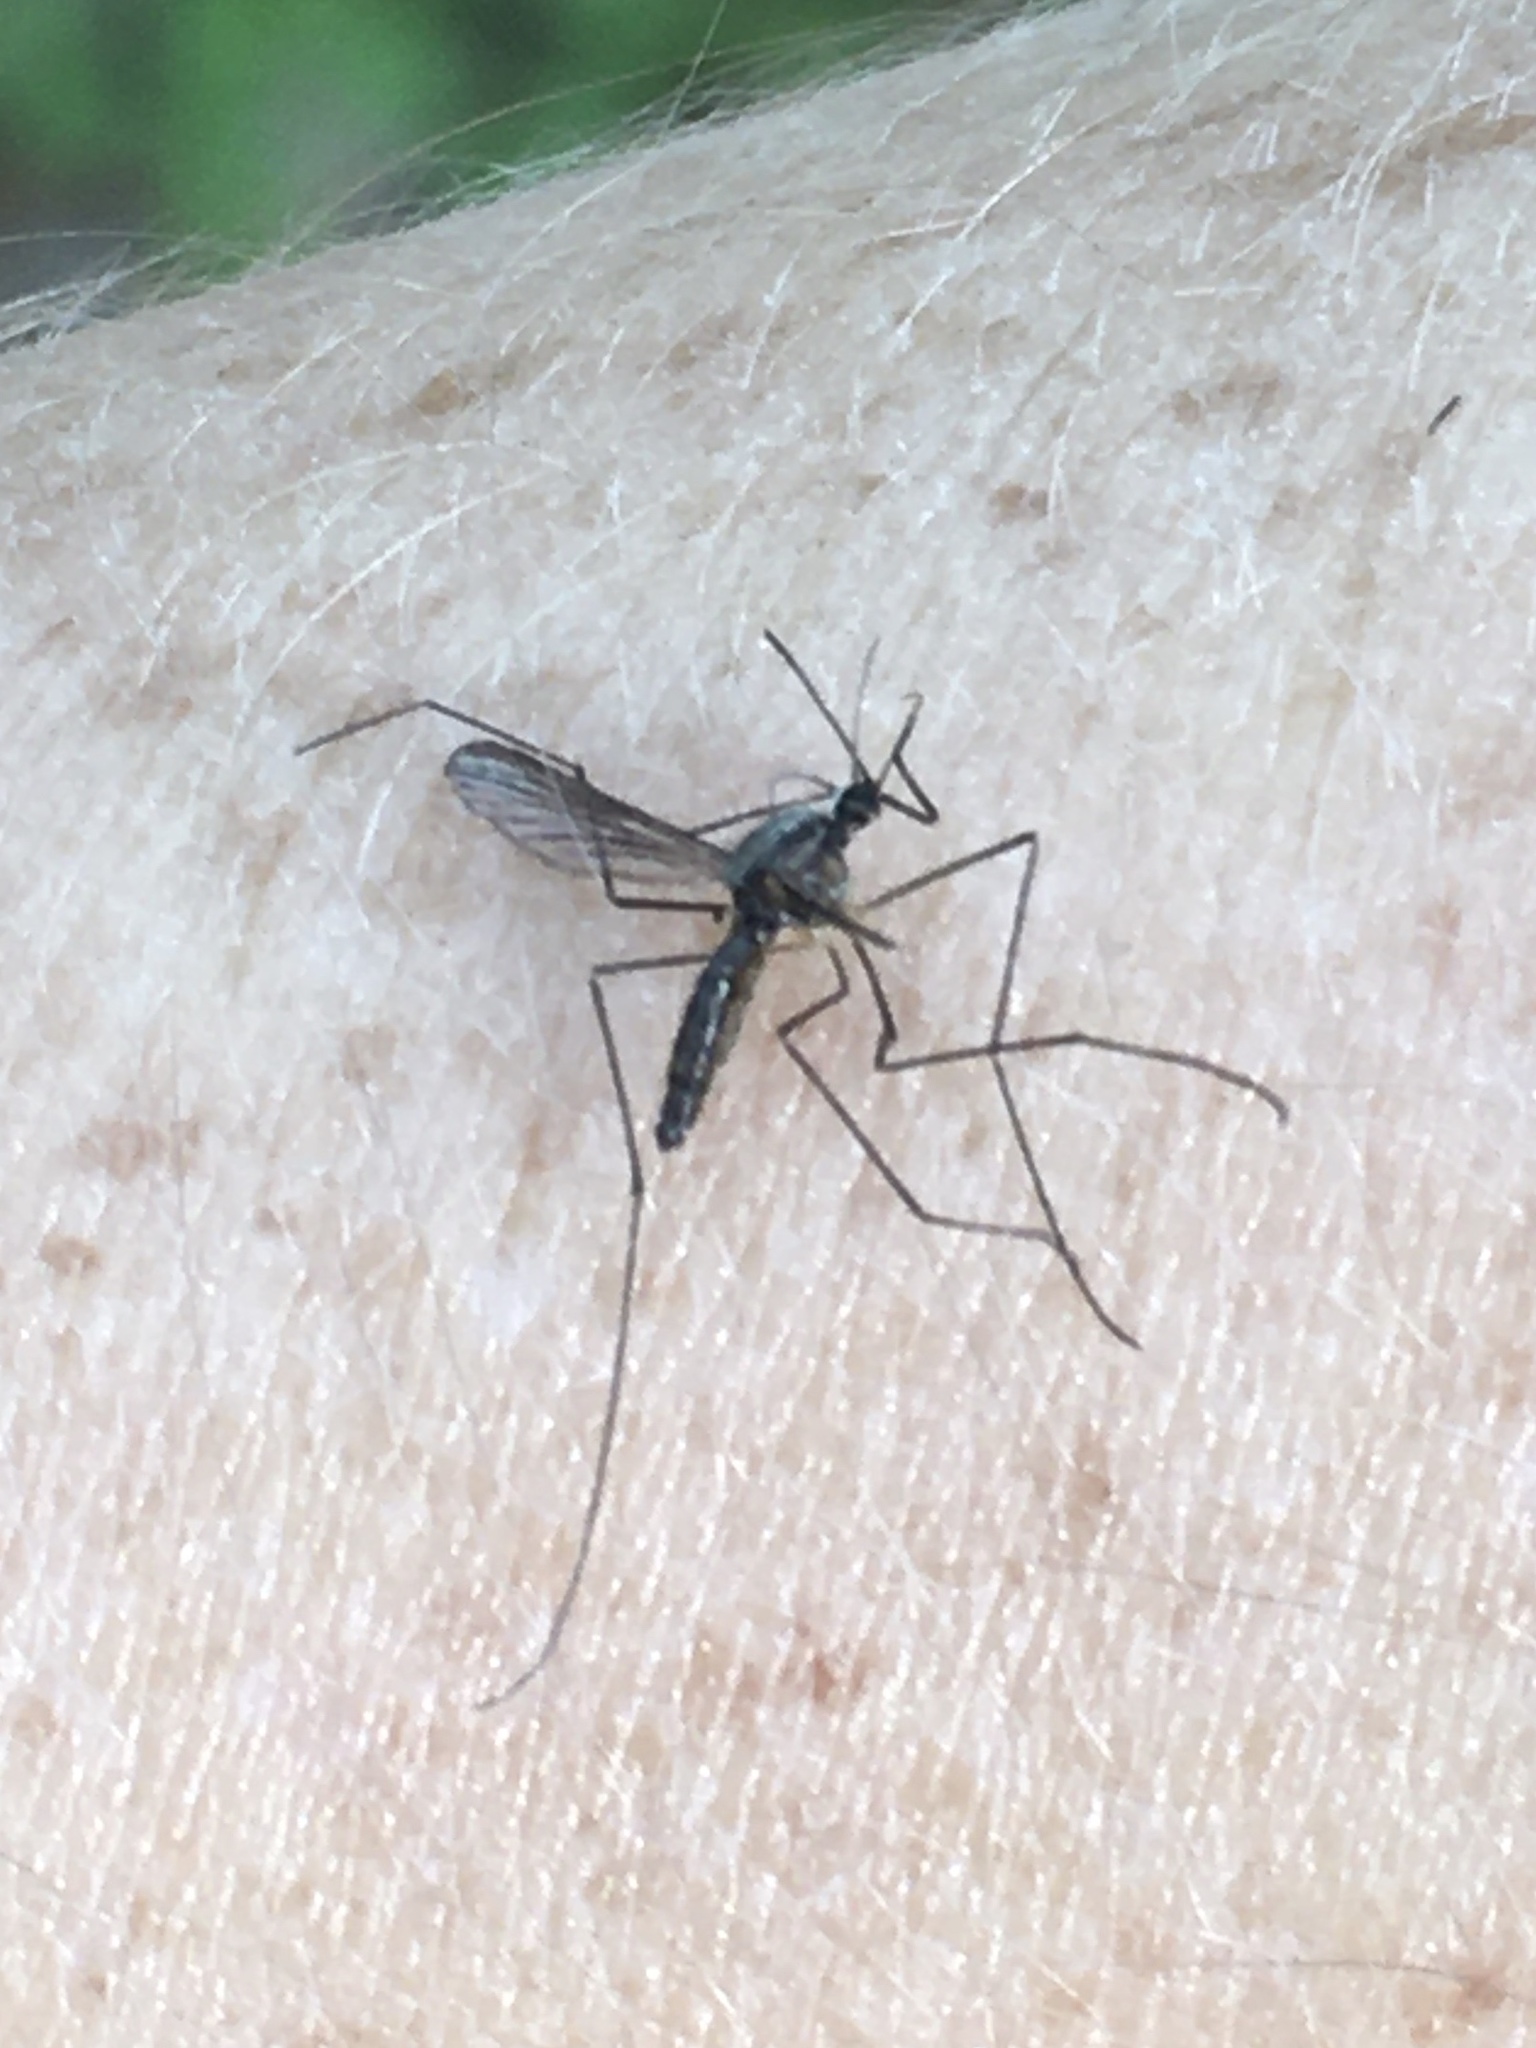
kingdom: Animalia
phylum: Arthropoda
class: Insecta
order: Diptera
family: Culicidae
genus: Anopheles
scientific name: Anopheles plumbeus
